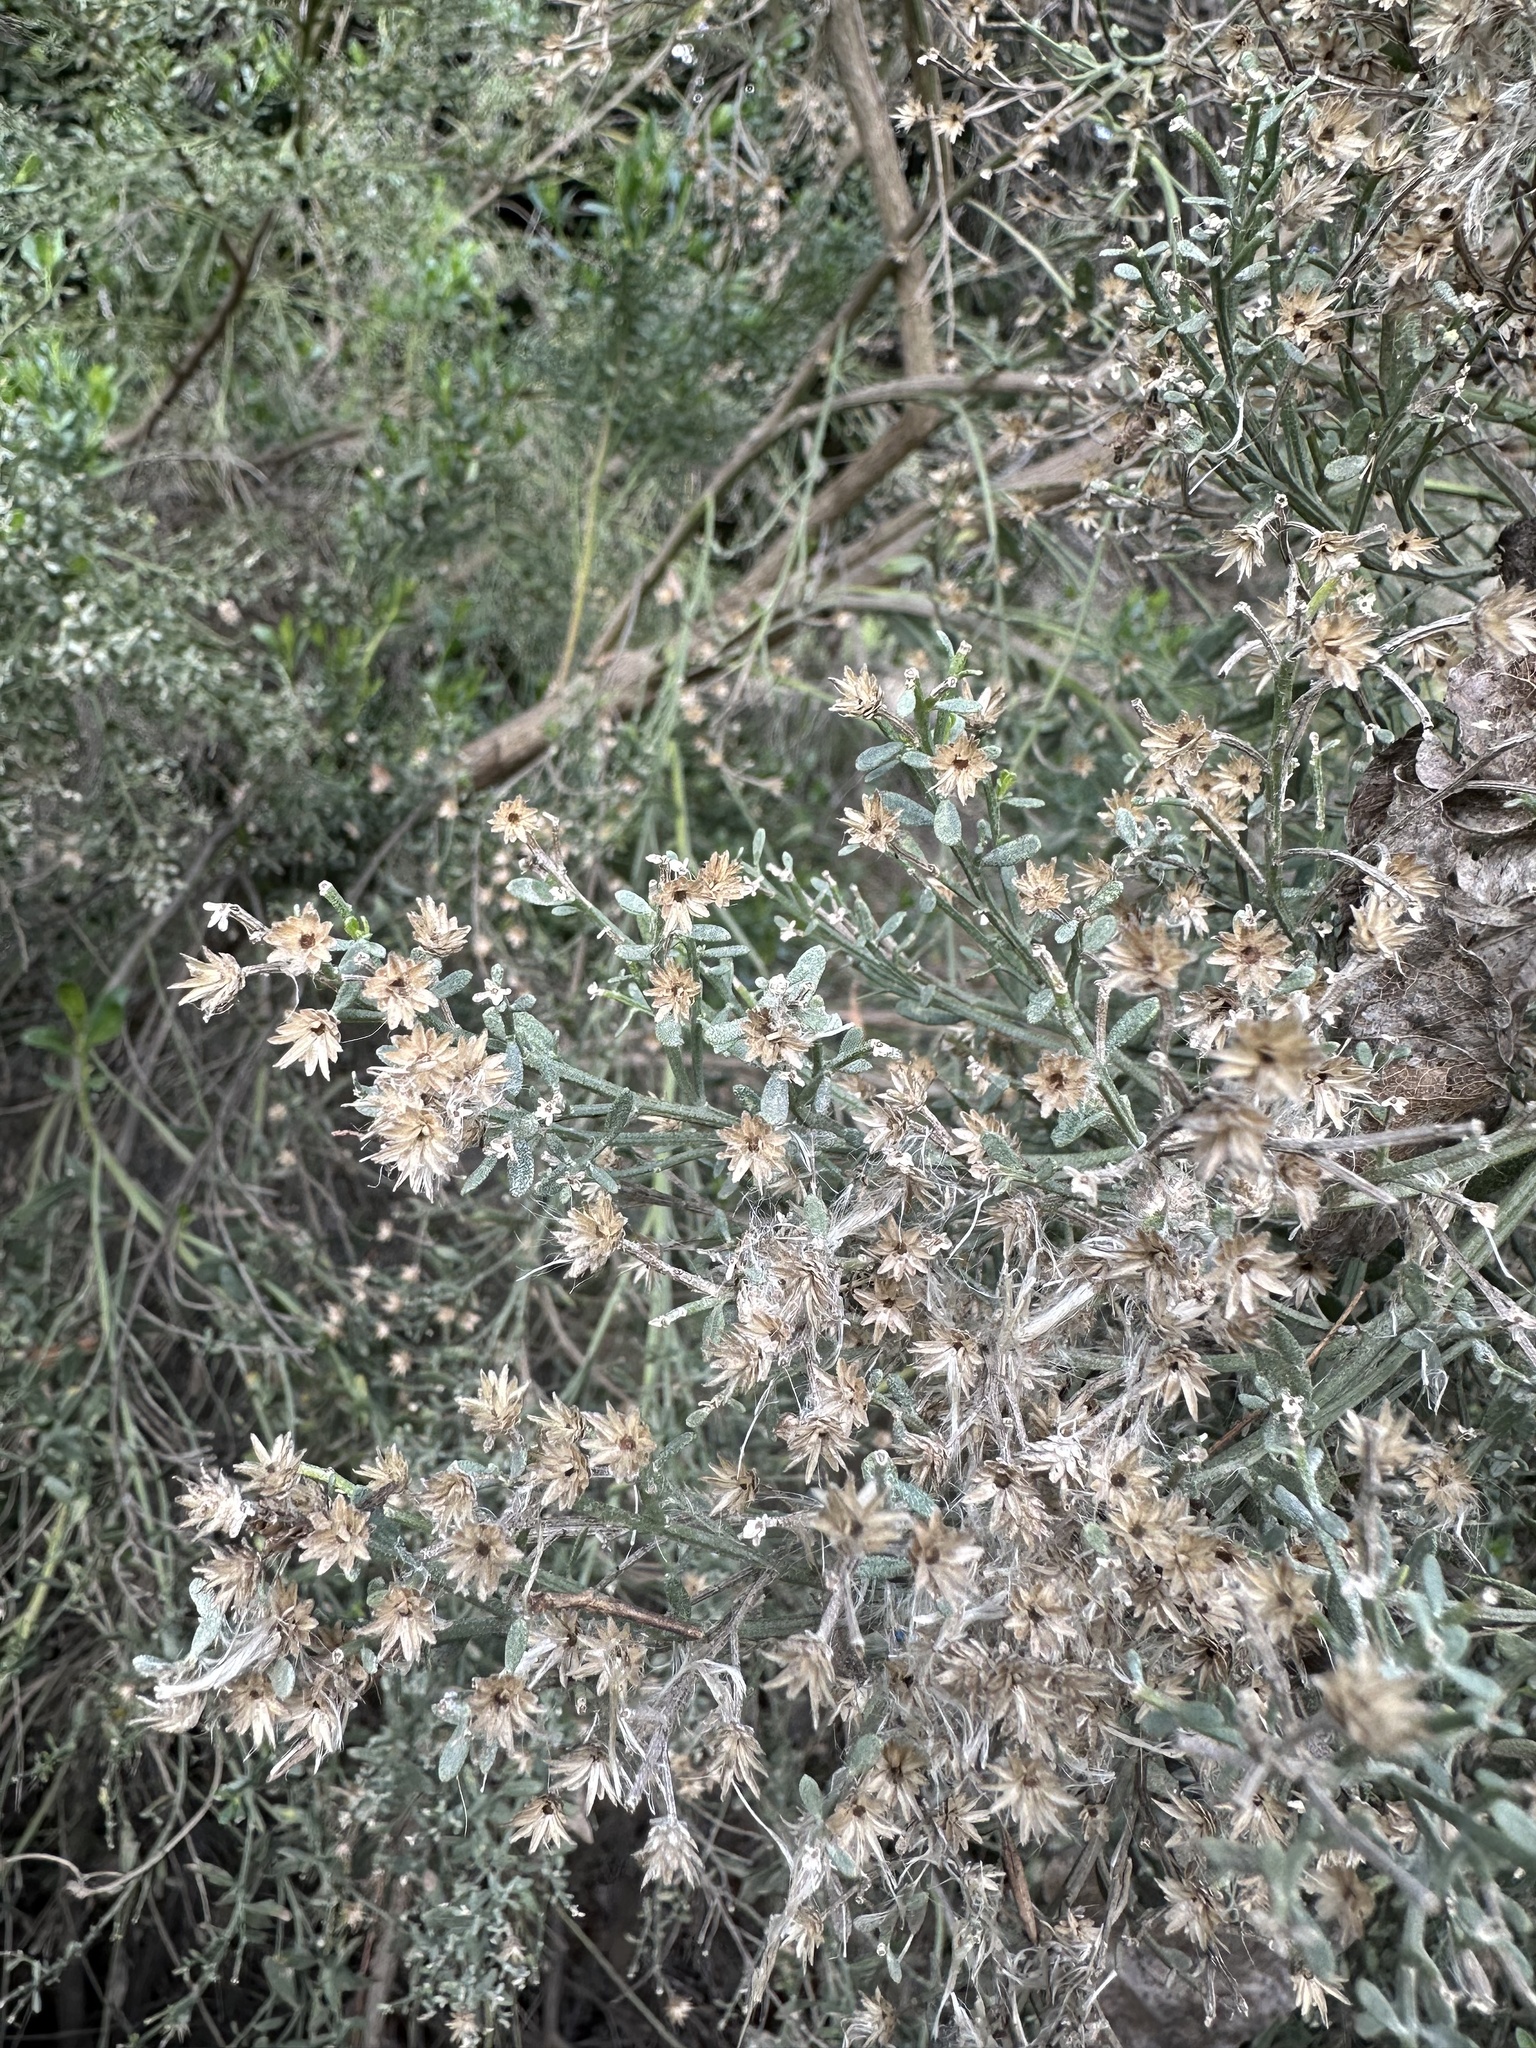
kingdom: Plantae
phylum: Tracheophyta
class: Magnoliopsida
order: Asterales
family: Asteraceae
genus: Baccharis
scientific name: Baccharis pilularis
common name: Coyotebrush
